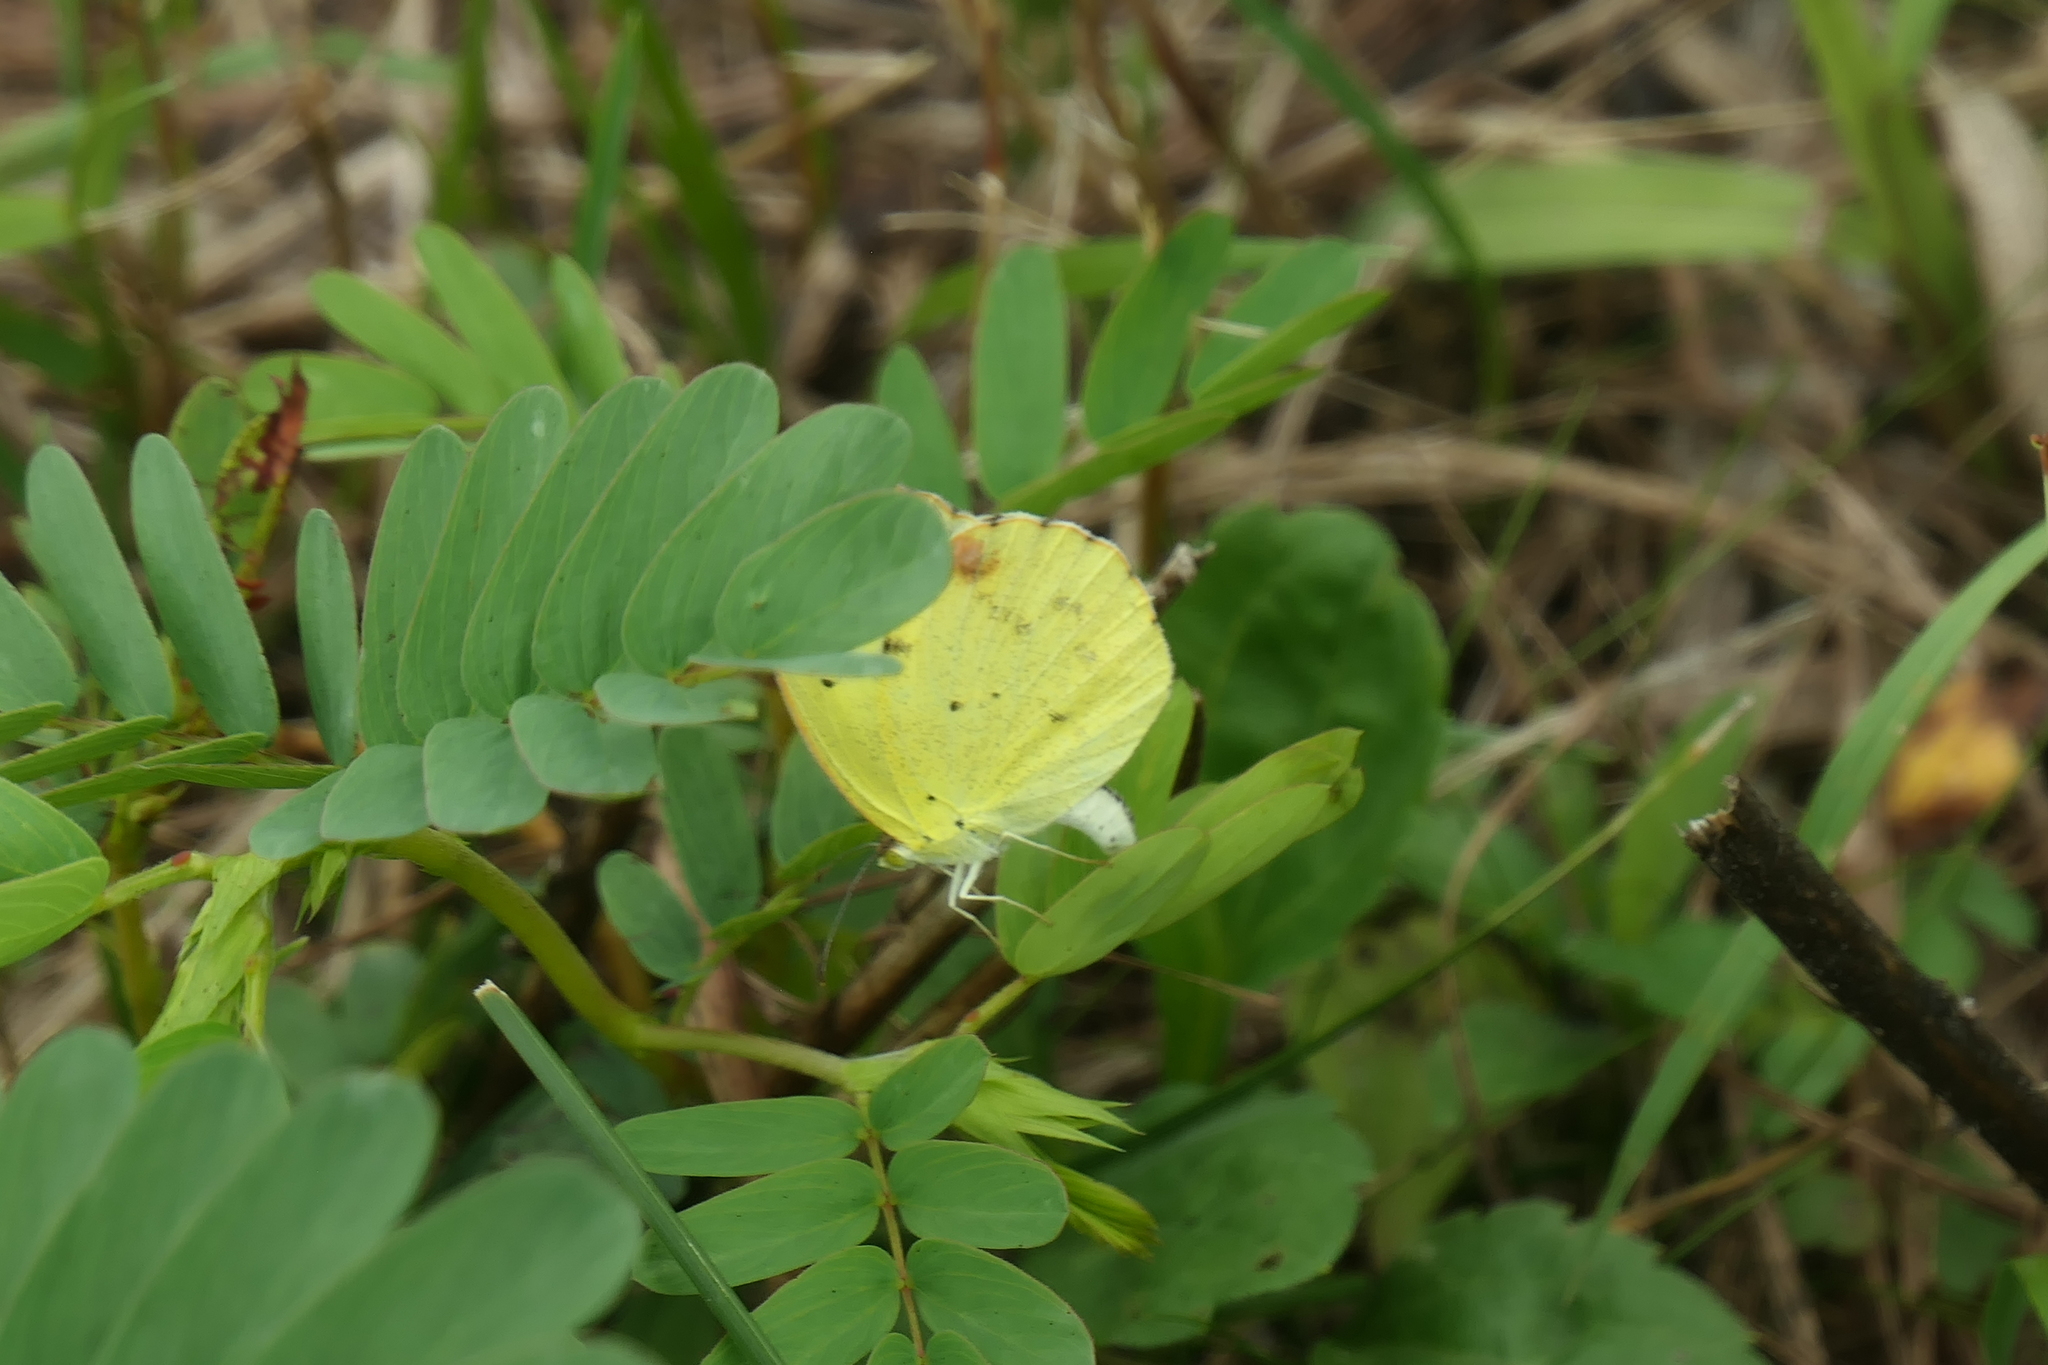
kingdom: Animalia
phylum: Arthropoda
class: Insecta
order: Lepidoptera
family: Pieridae
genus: Pyrisitia
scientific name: Pyrisitia lisa
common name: Little yellow
